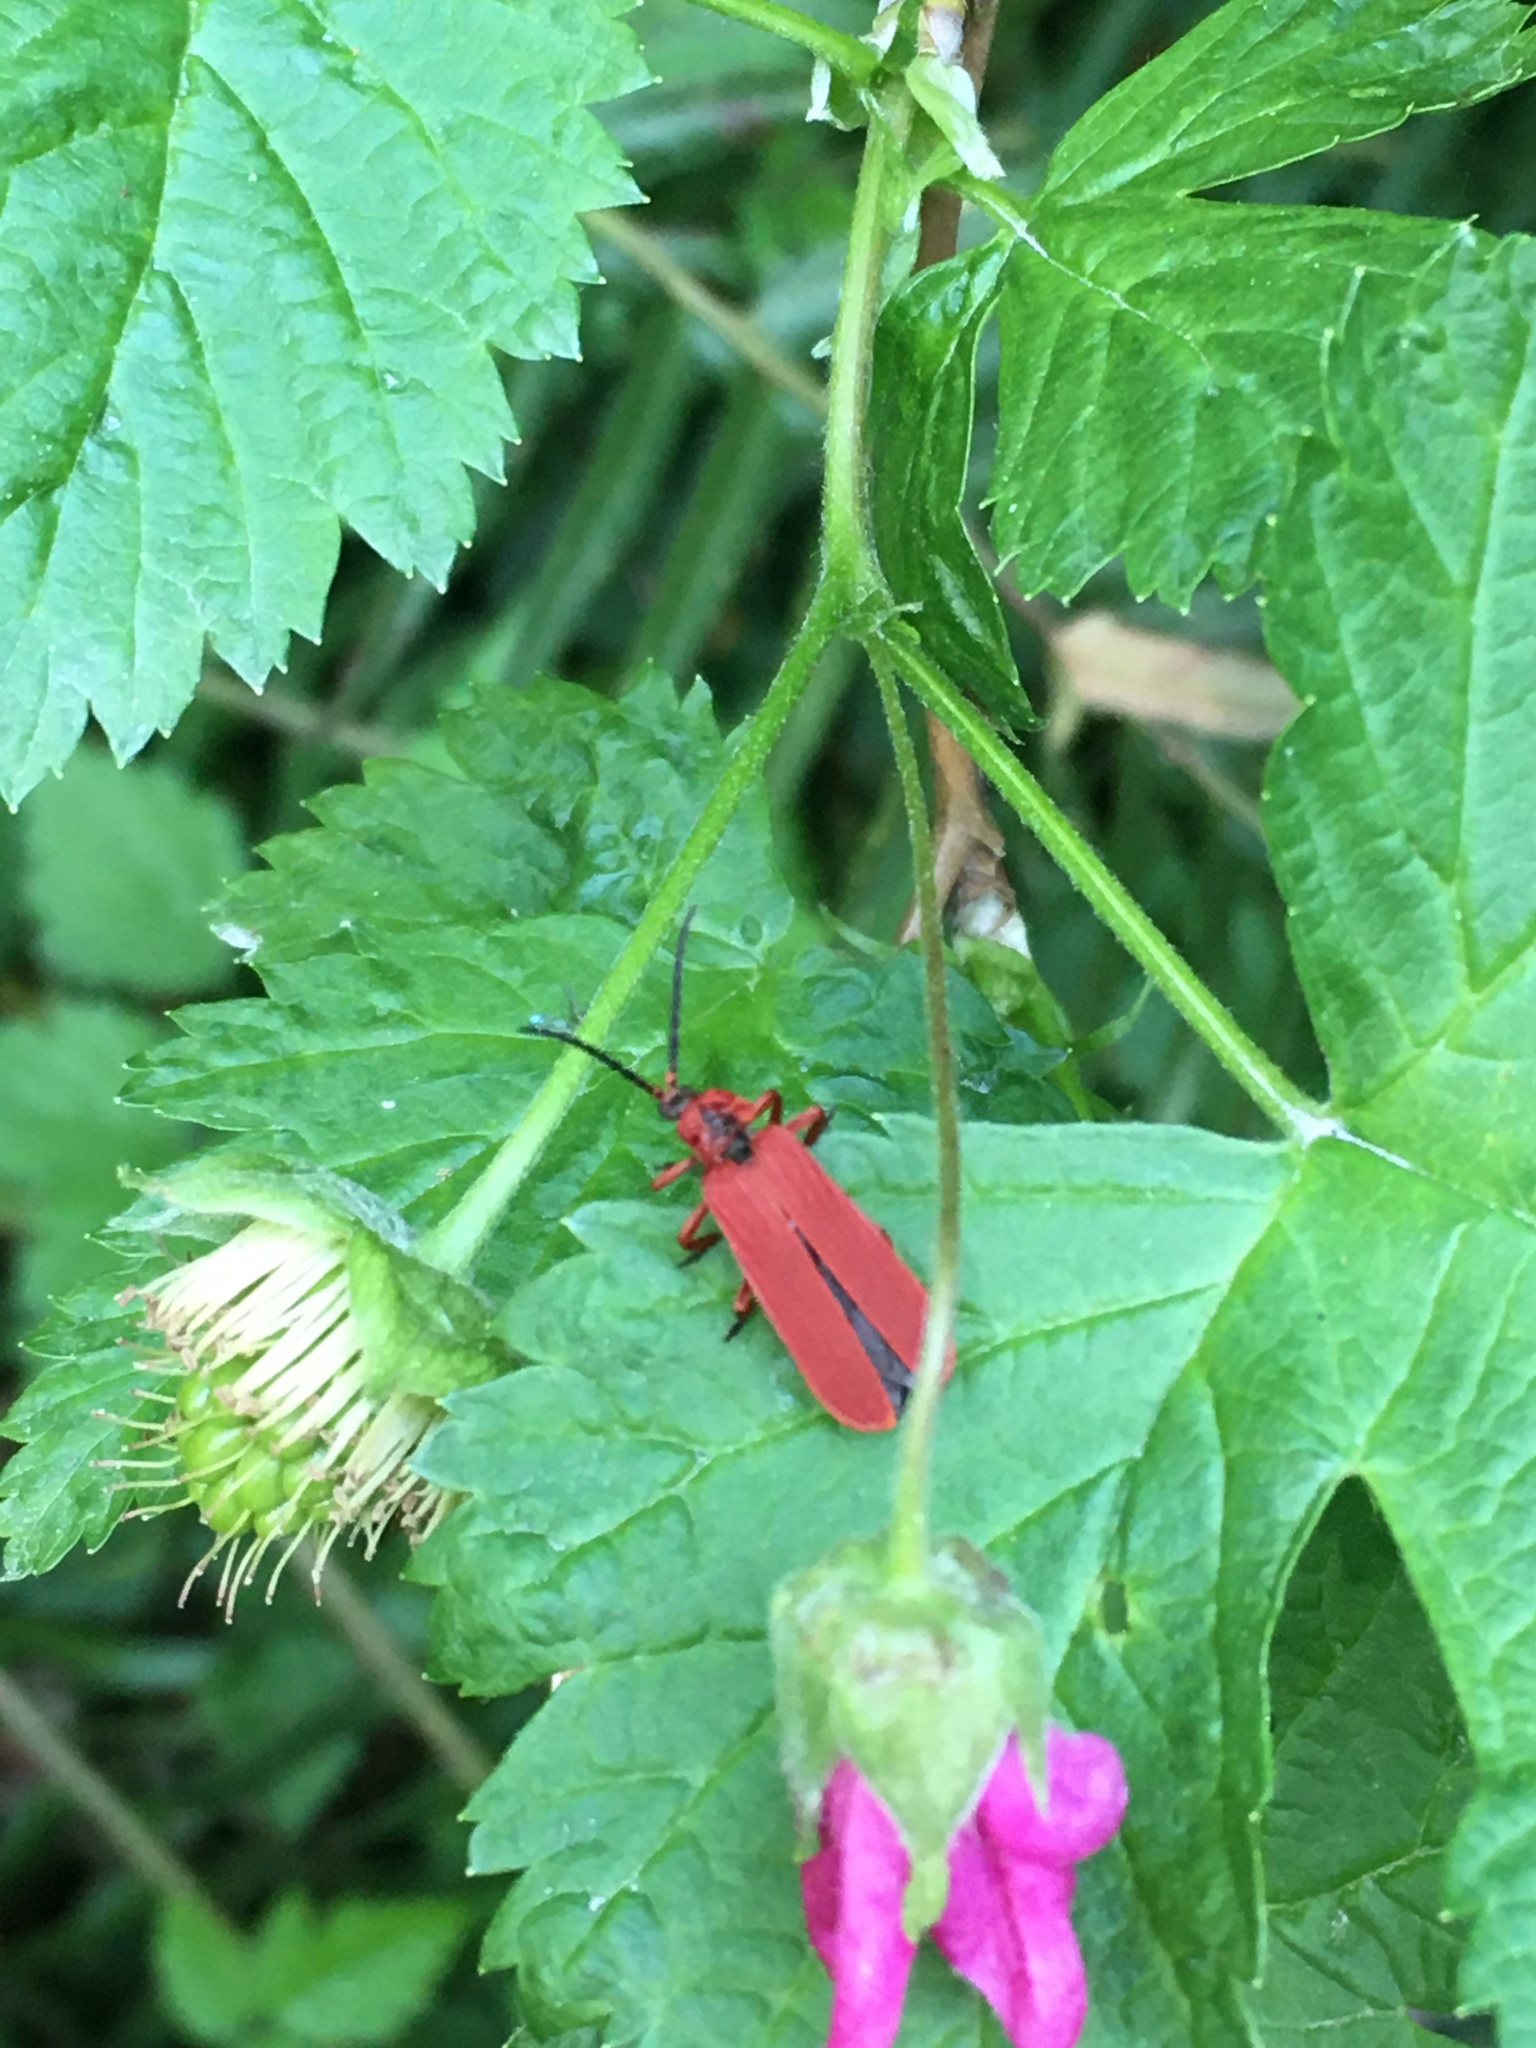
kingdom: Animalia
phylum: Arthropoda
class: Insecta
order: Coleoptera
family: Lycidae
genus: Dictyoptera
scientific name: Dictyoptera simplicipes
